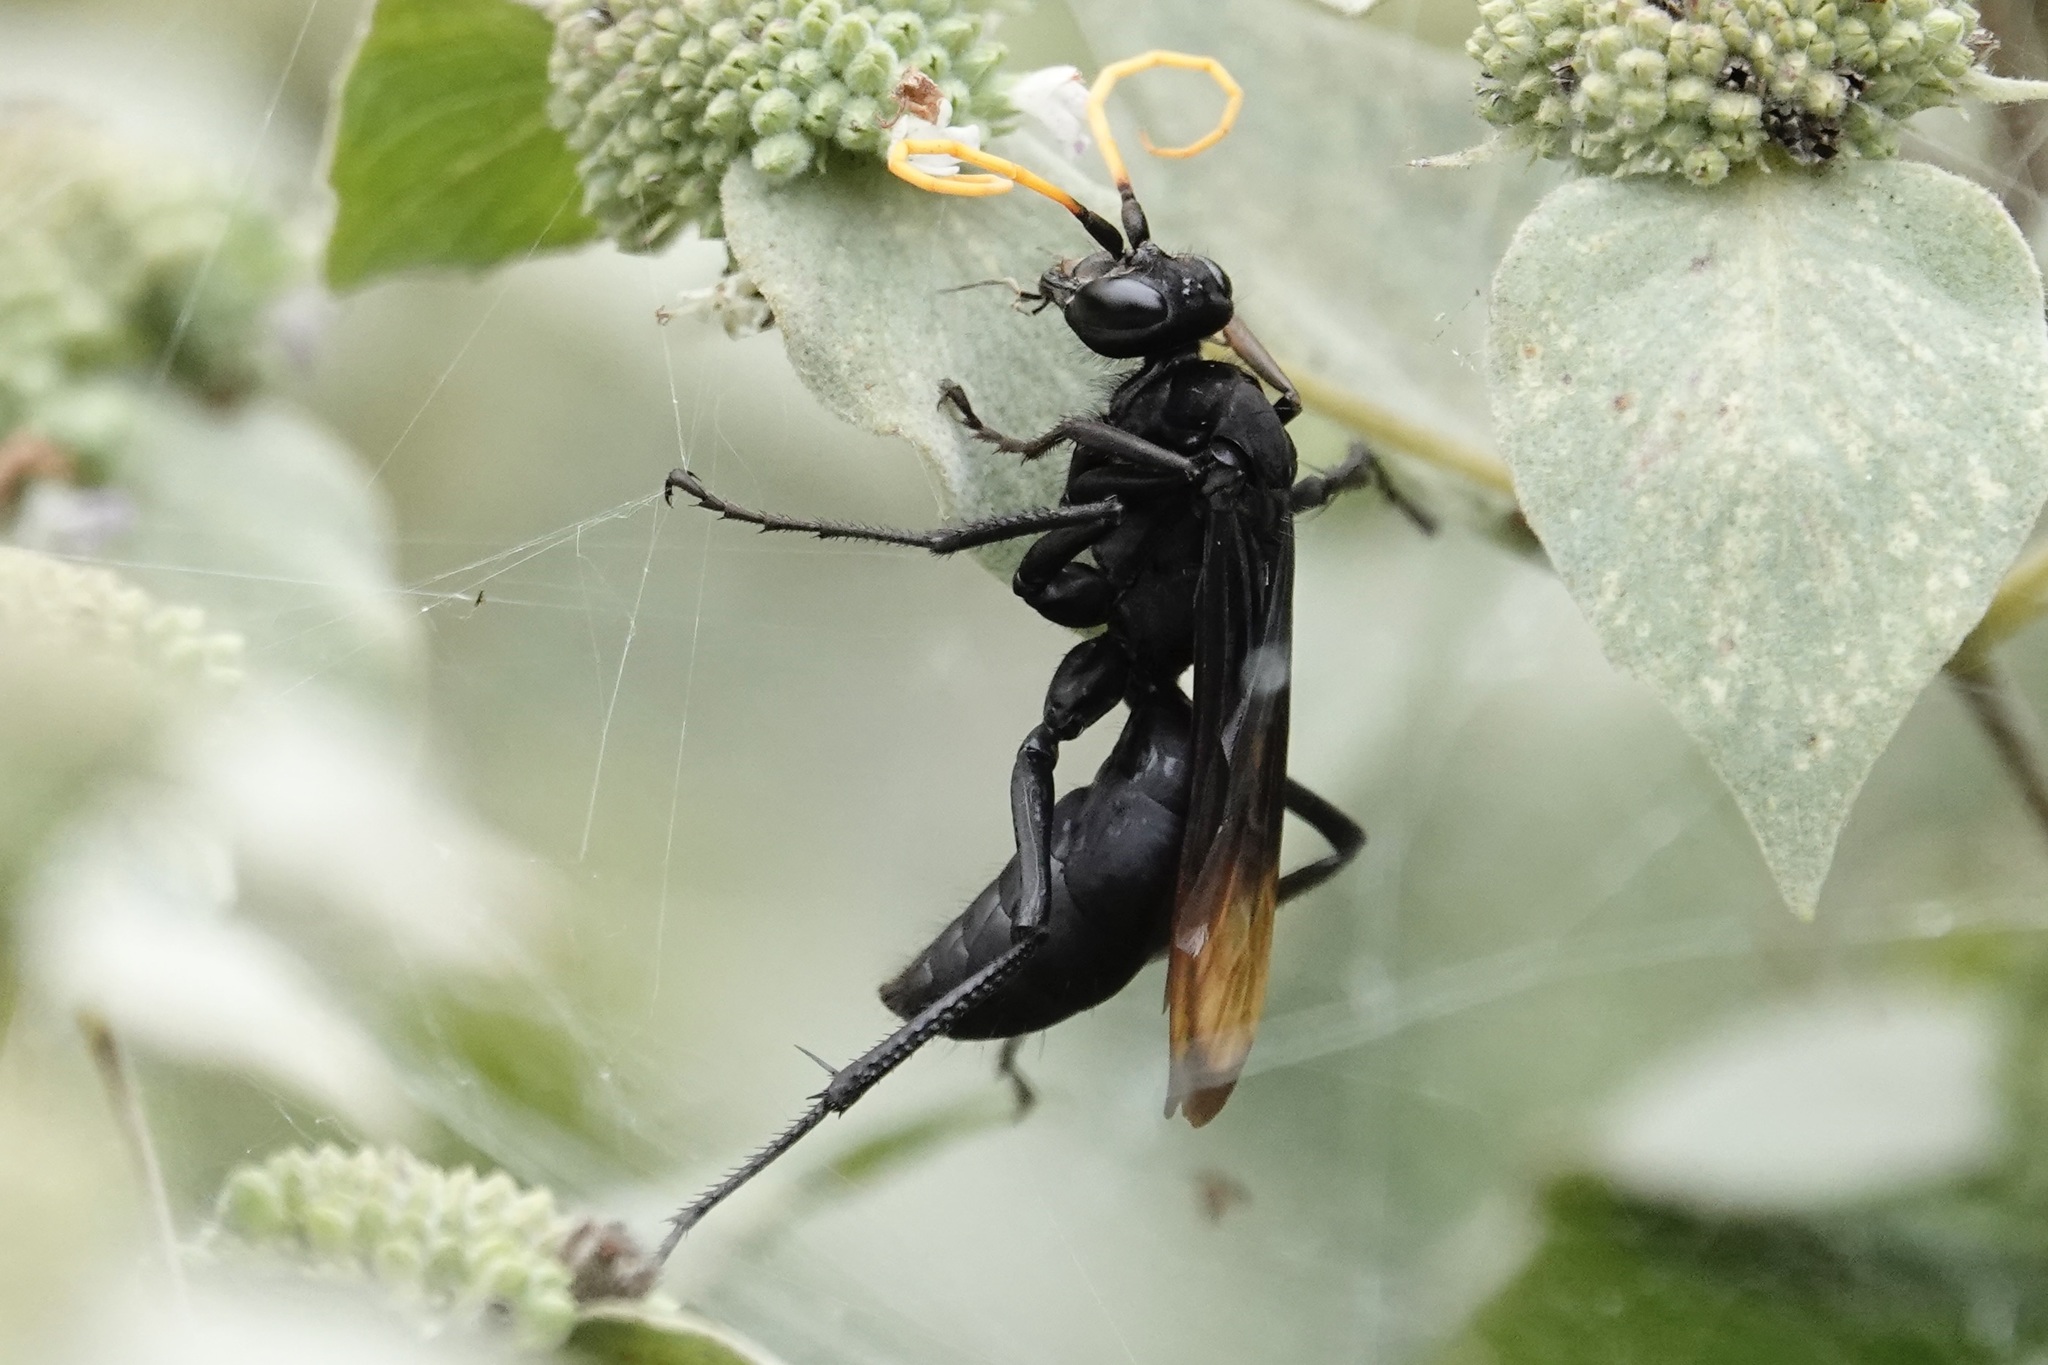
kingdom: Animalia
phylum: Arthropoda
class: Insecta
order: Hymenoptera
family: Pompilidae
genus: Entypus
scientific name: Entypus unifasciatus
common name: Eastern tawny-horned spider wasp
